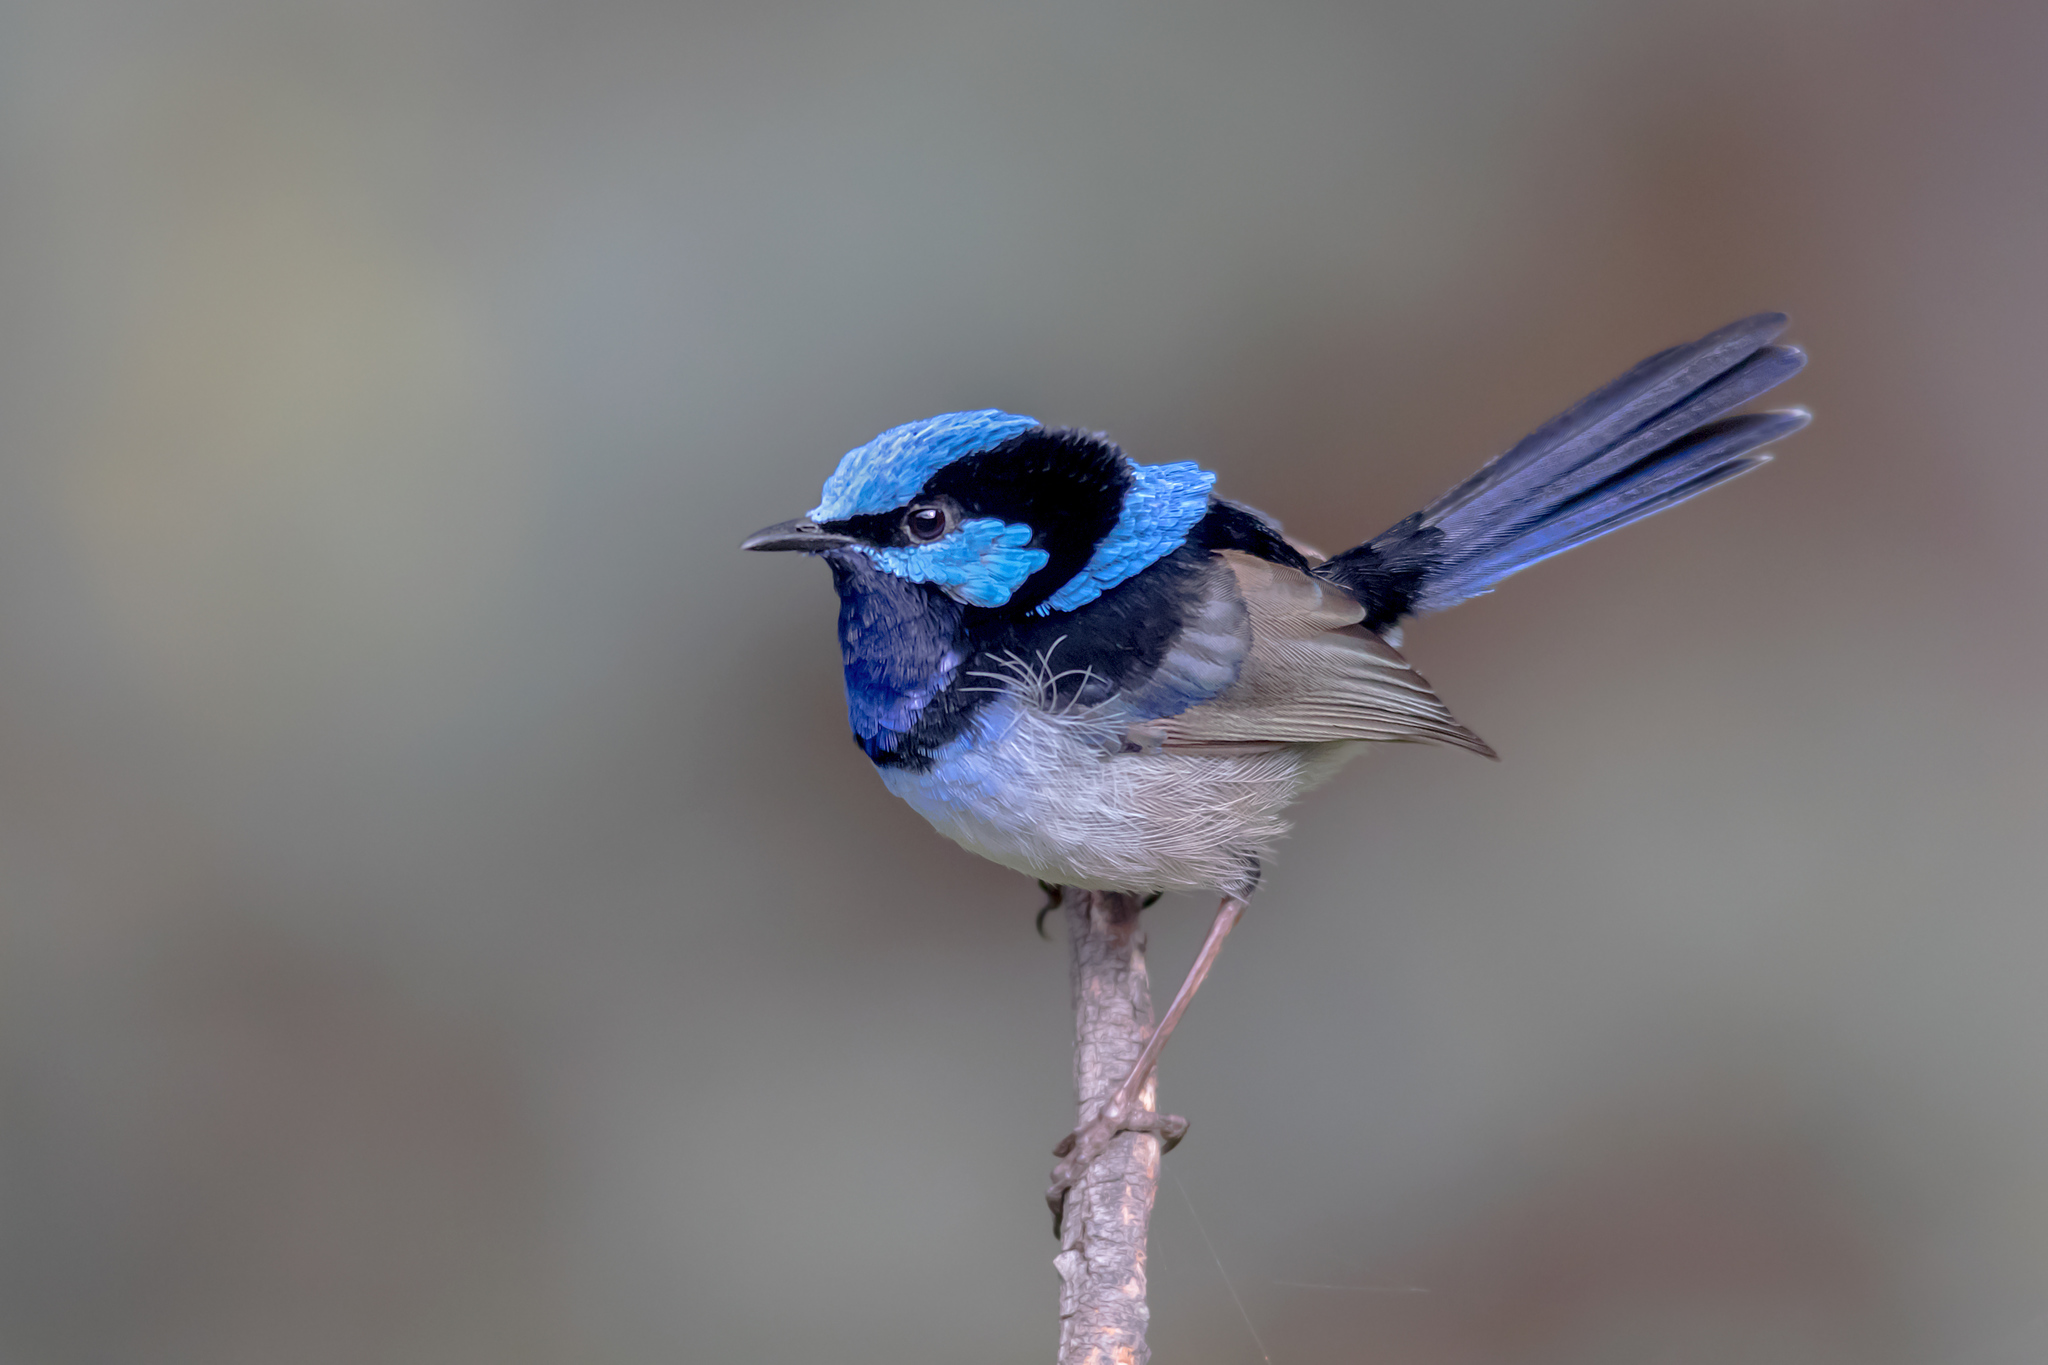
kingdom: Animalia
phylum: Chordata
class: Aves
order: Passeriformes
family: Maluridae
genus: Malurus
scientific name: Malurus cyaneus
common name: Superb fairywren
